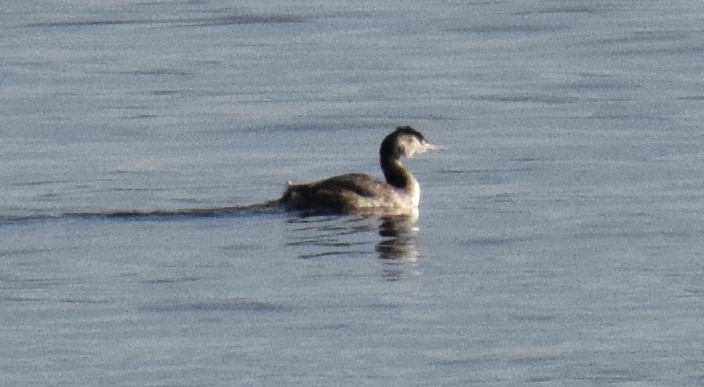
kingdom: Animalia
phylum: Chordata
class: Aves
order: Podicipediformes
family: Podicipedidae
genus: Podiceps
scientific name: Podiceps cristatus
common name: Great crested grebe
